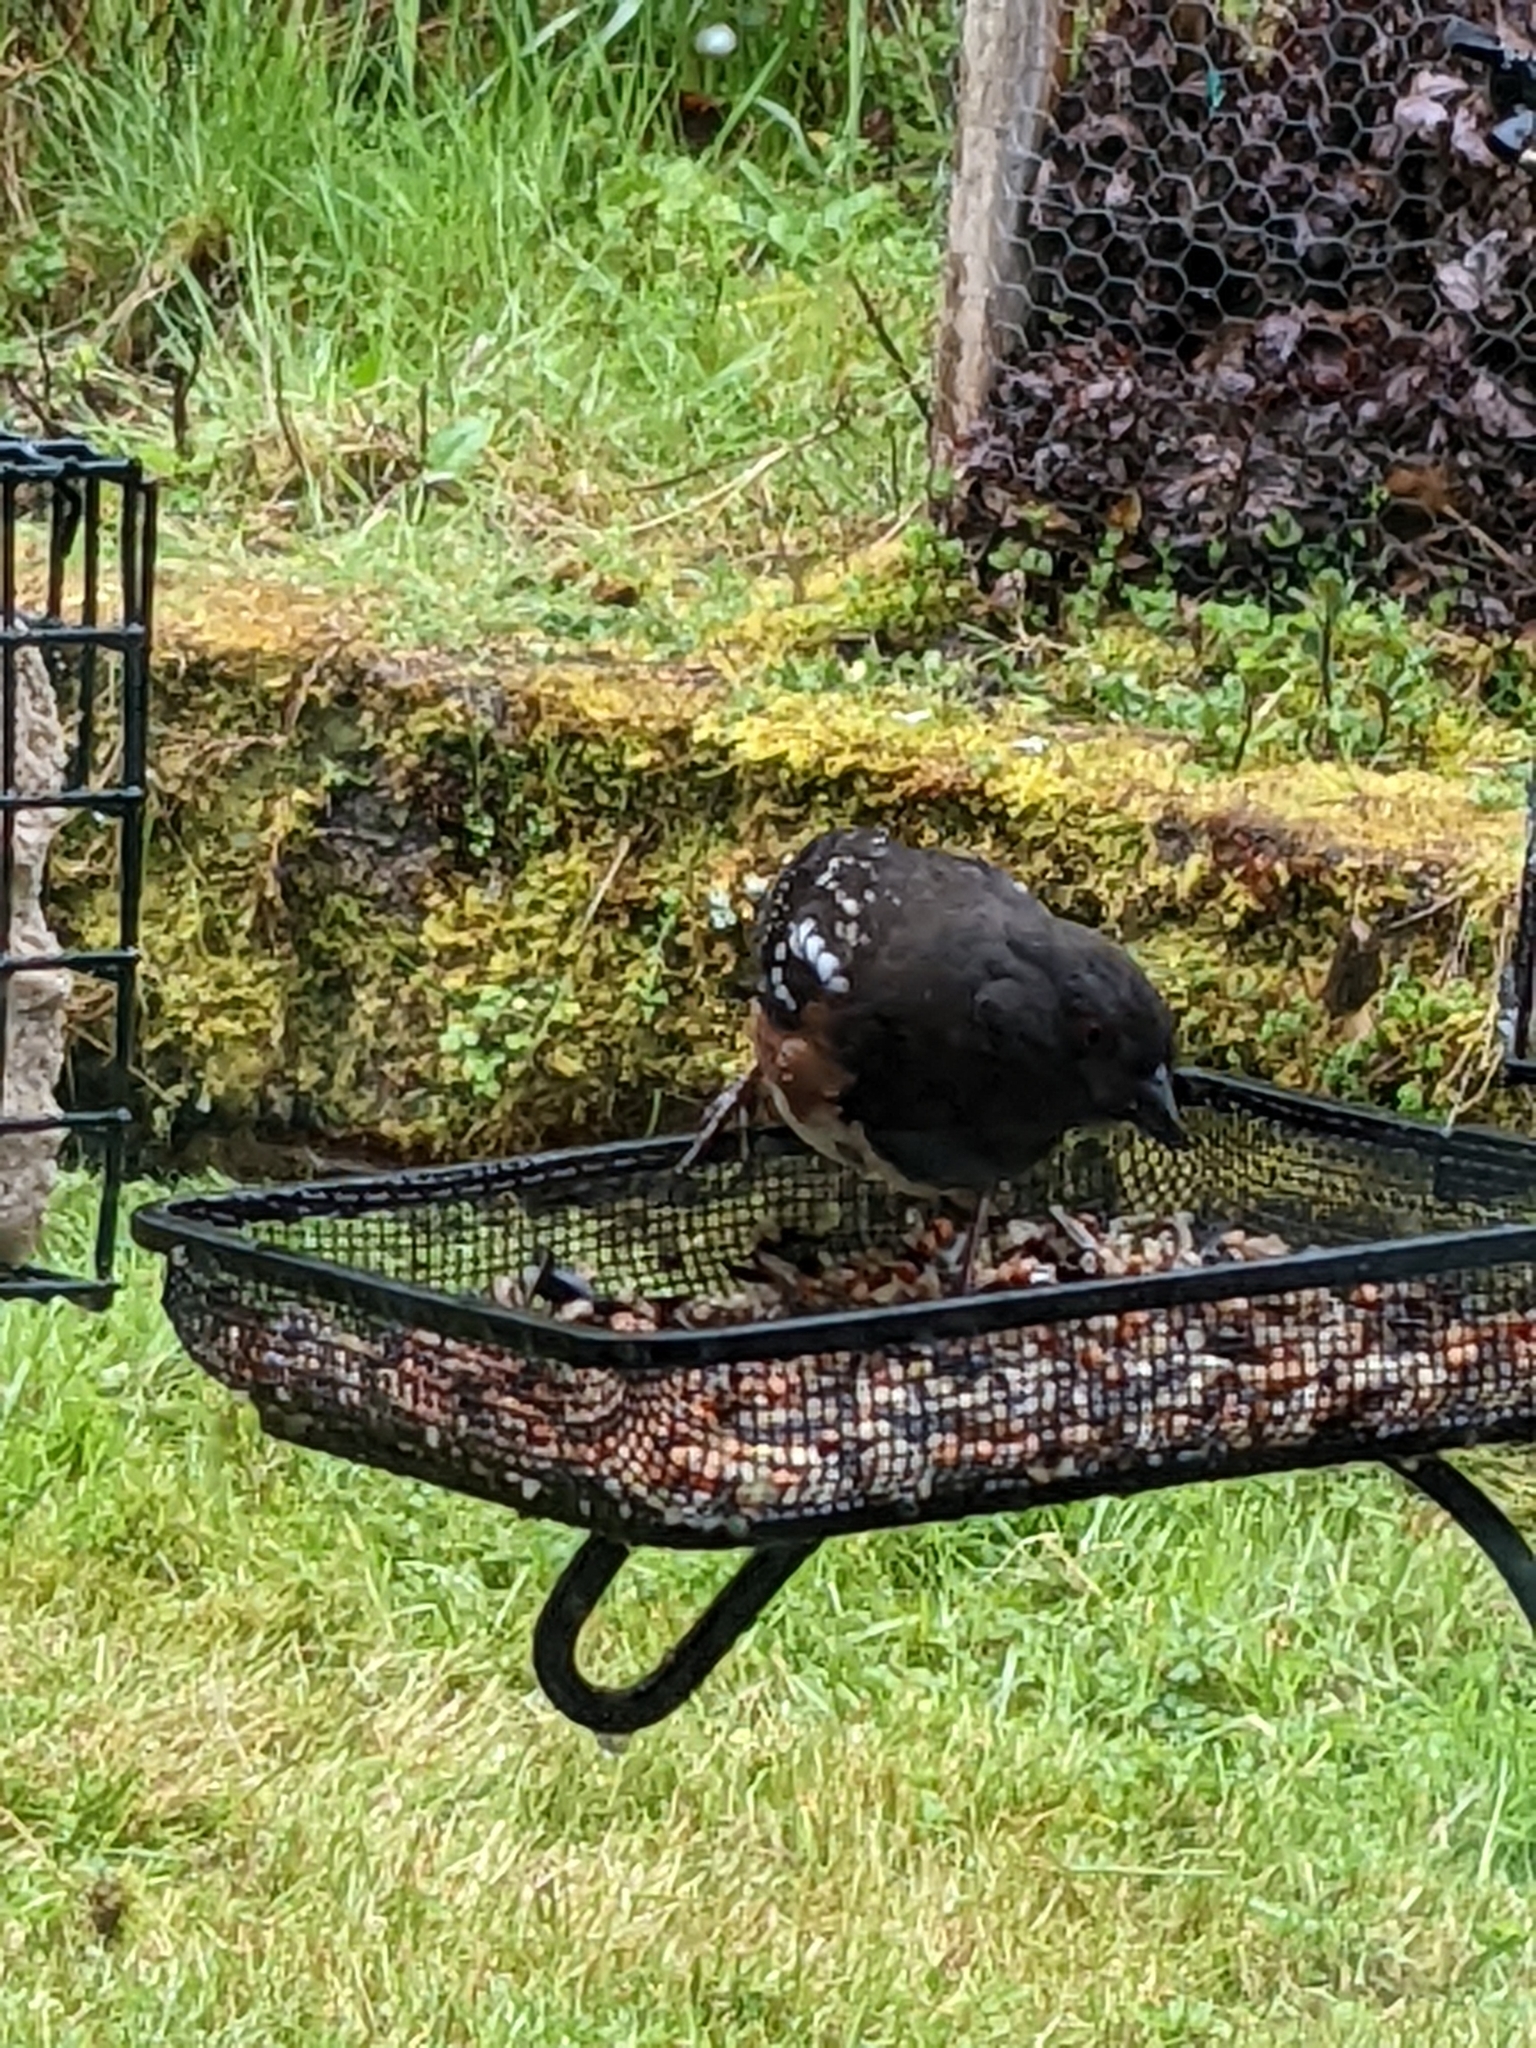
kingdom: Animalia
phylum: Chordata
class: Aves
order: Passeriformes
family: Passerellidae
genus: Pipilo
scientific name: Pipilo maculatus
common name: Spotted towhee
